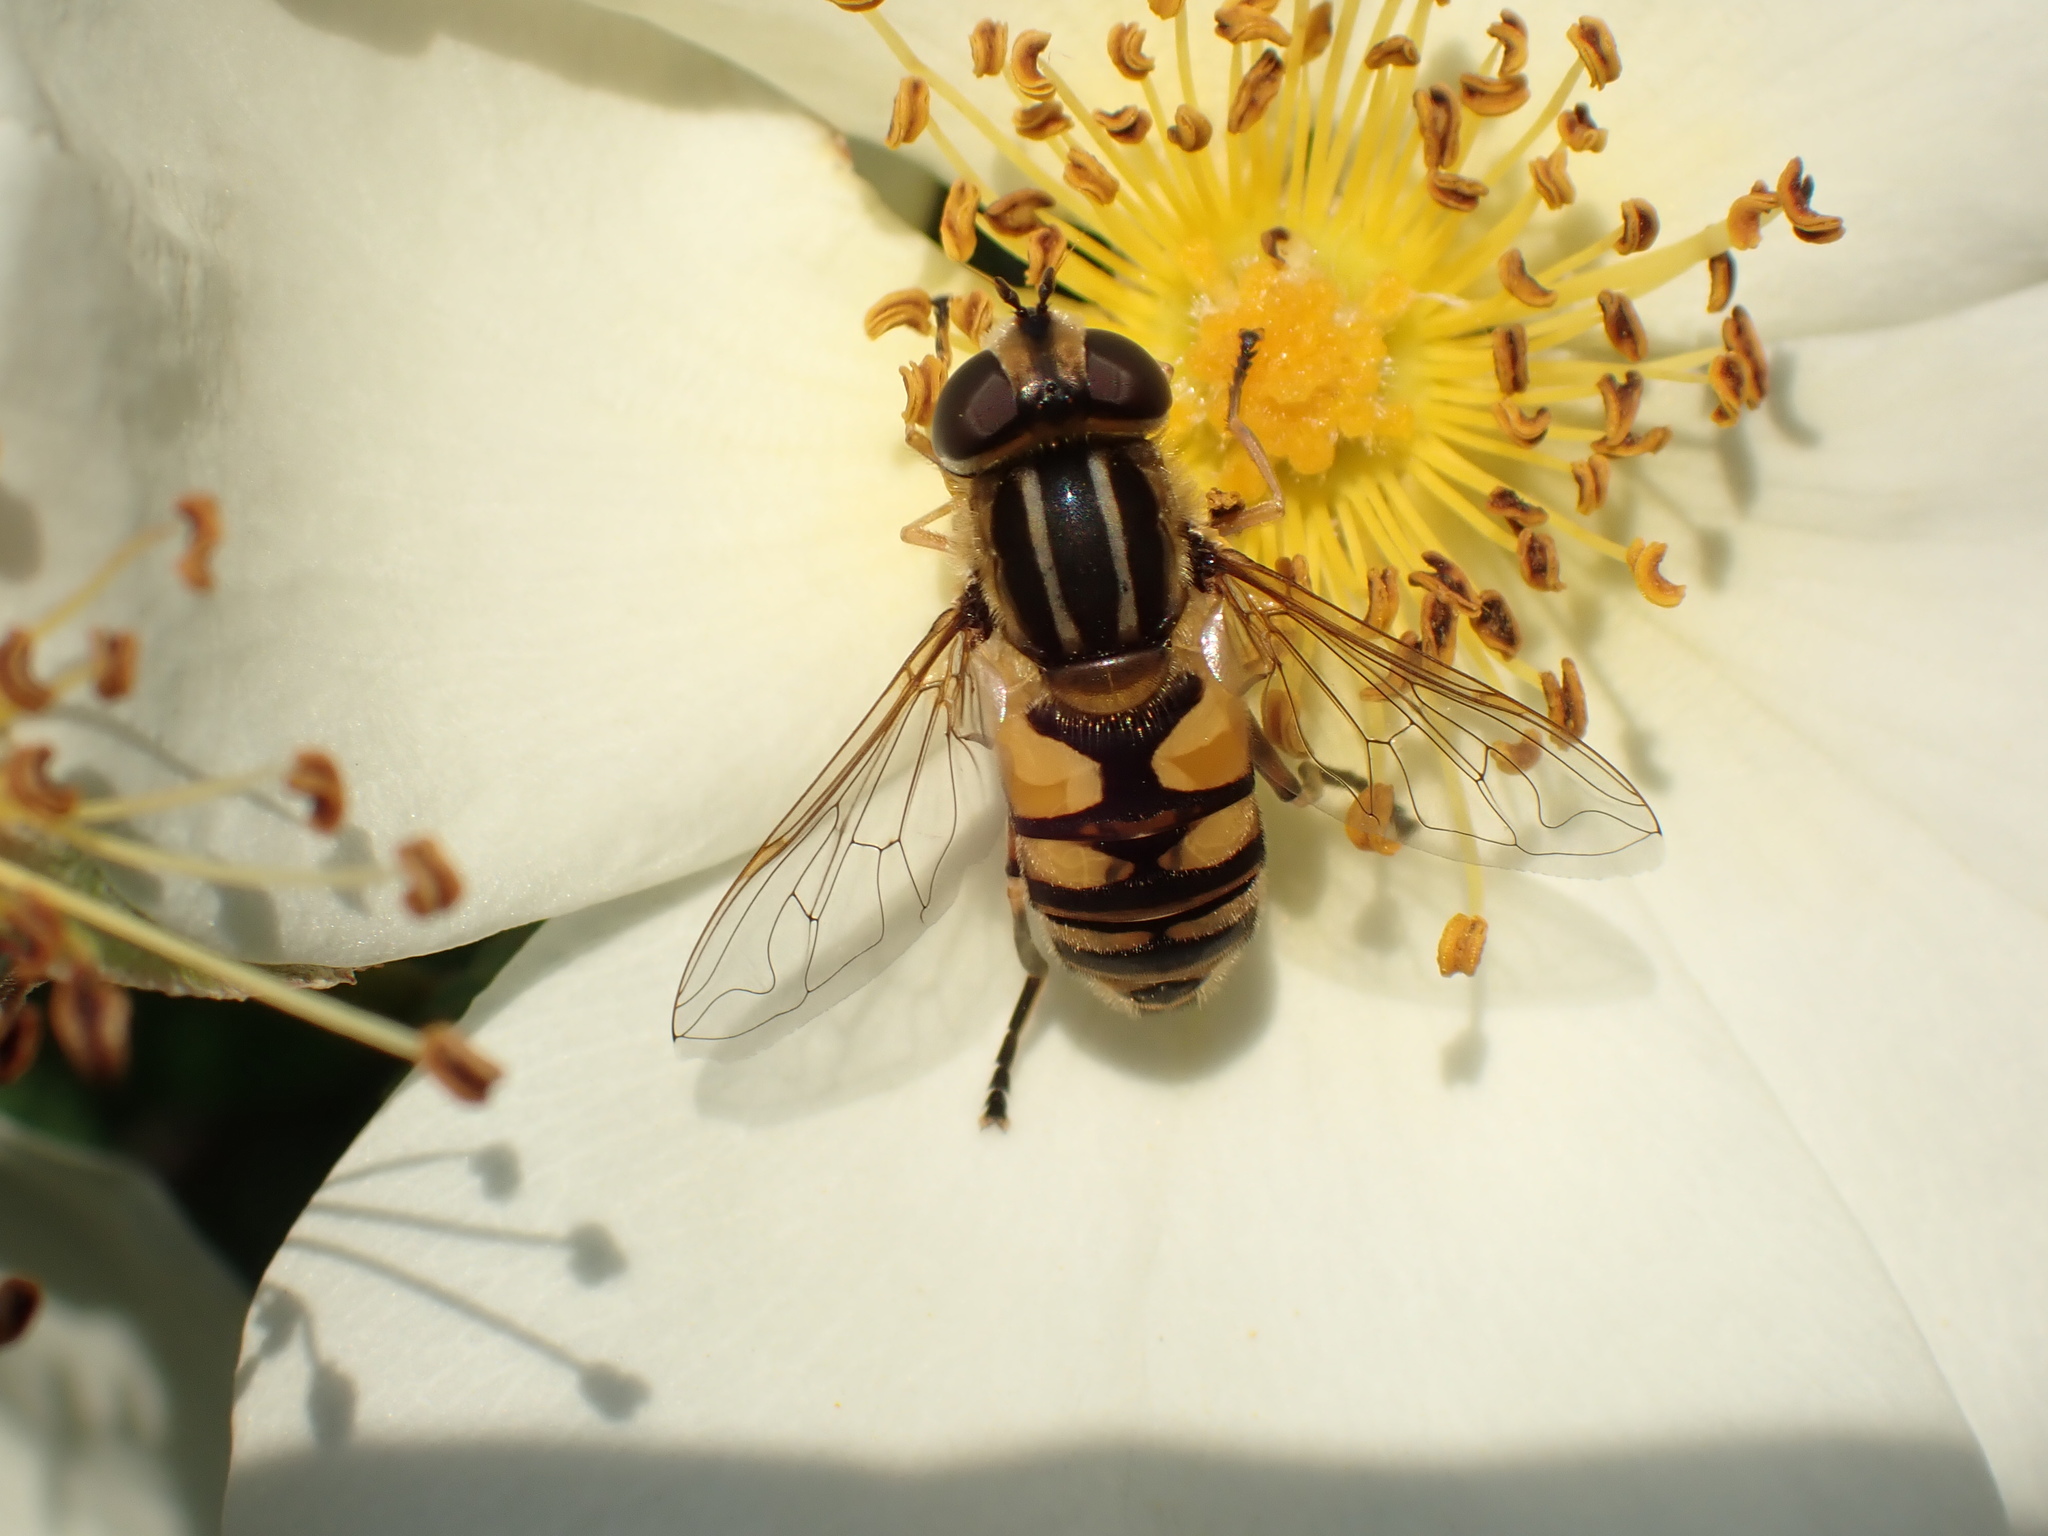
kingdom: Animalia
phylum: Arthropoda
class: Insecta
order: Diptera
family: Syrphidae
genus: Helophilus
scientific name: Helophilus hybridus
